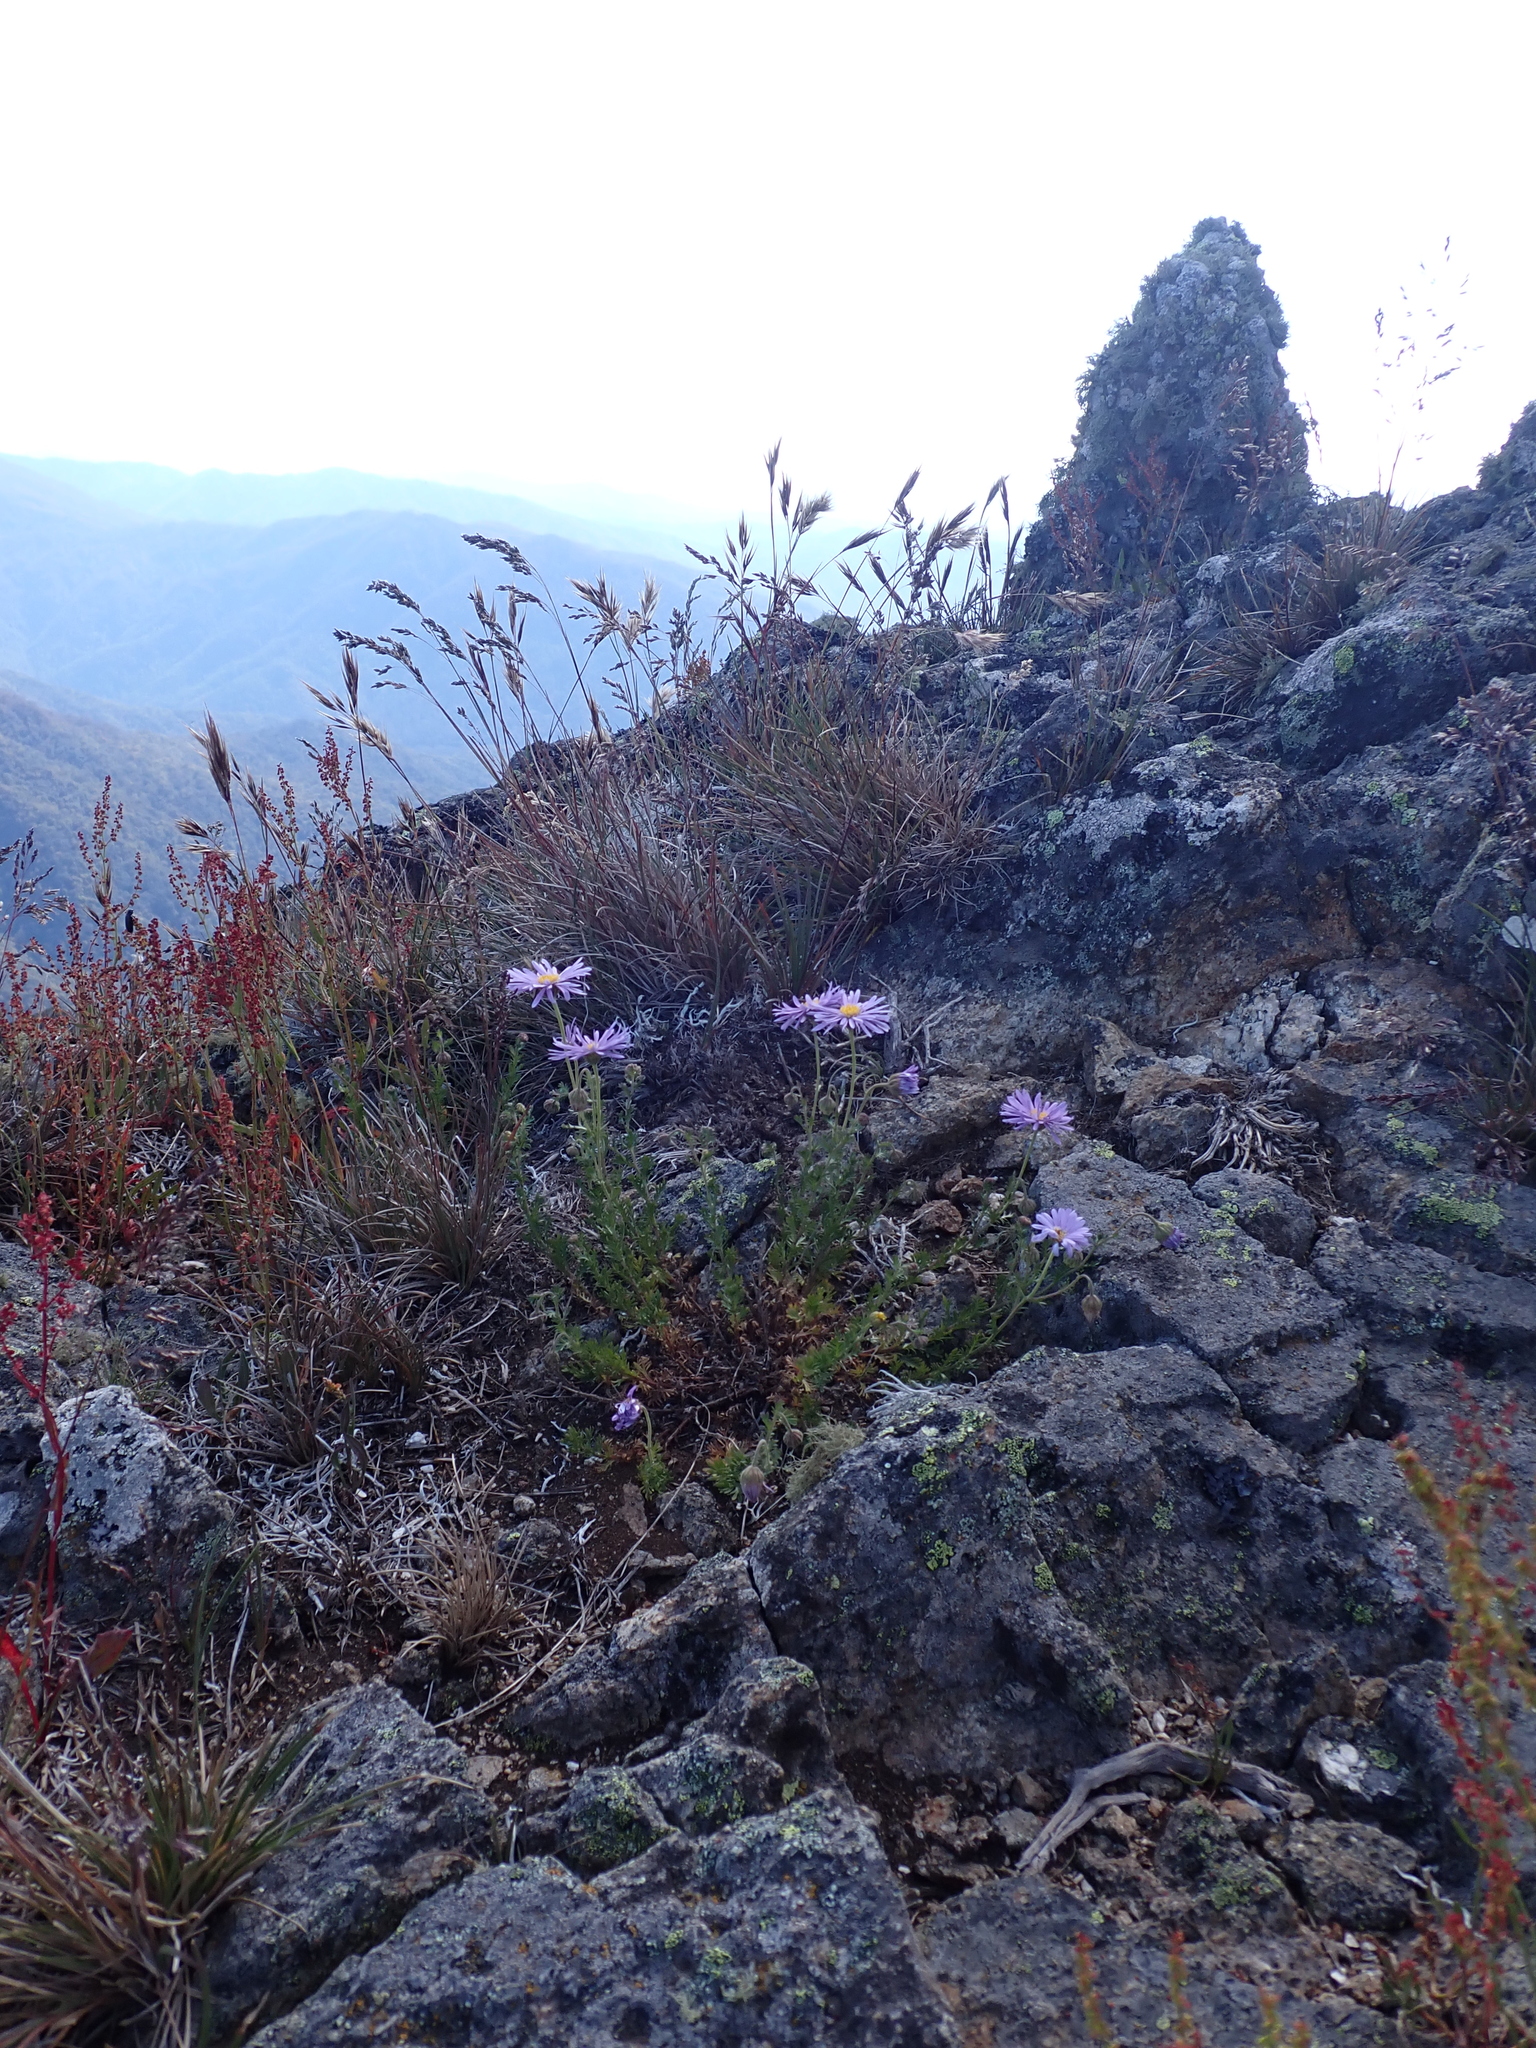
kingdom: Plantae
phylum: Tracheophyta
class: Magnoliopsida
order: Asterales
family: Asteraceae
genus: Brachyscome
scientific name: Brachyscome rigidula
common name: Leafy daisy
